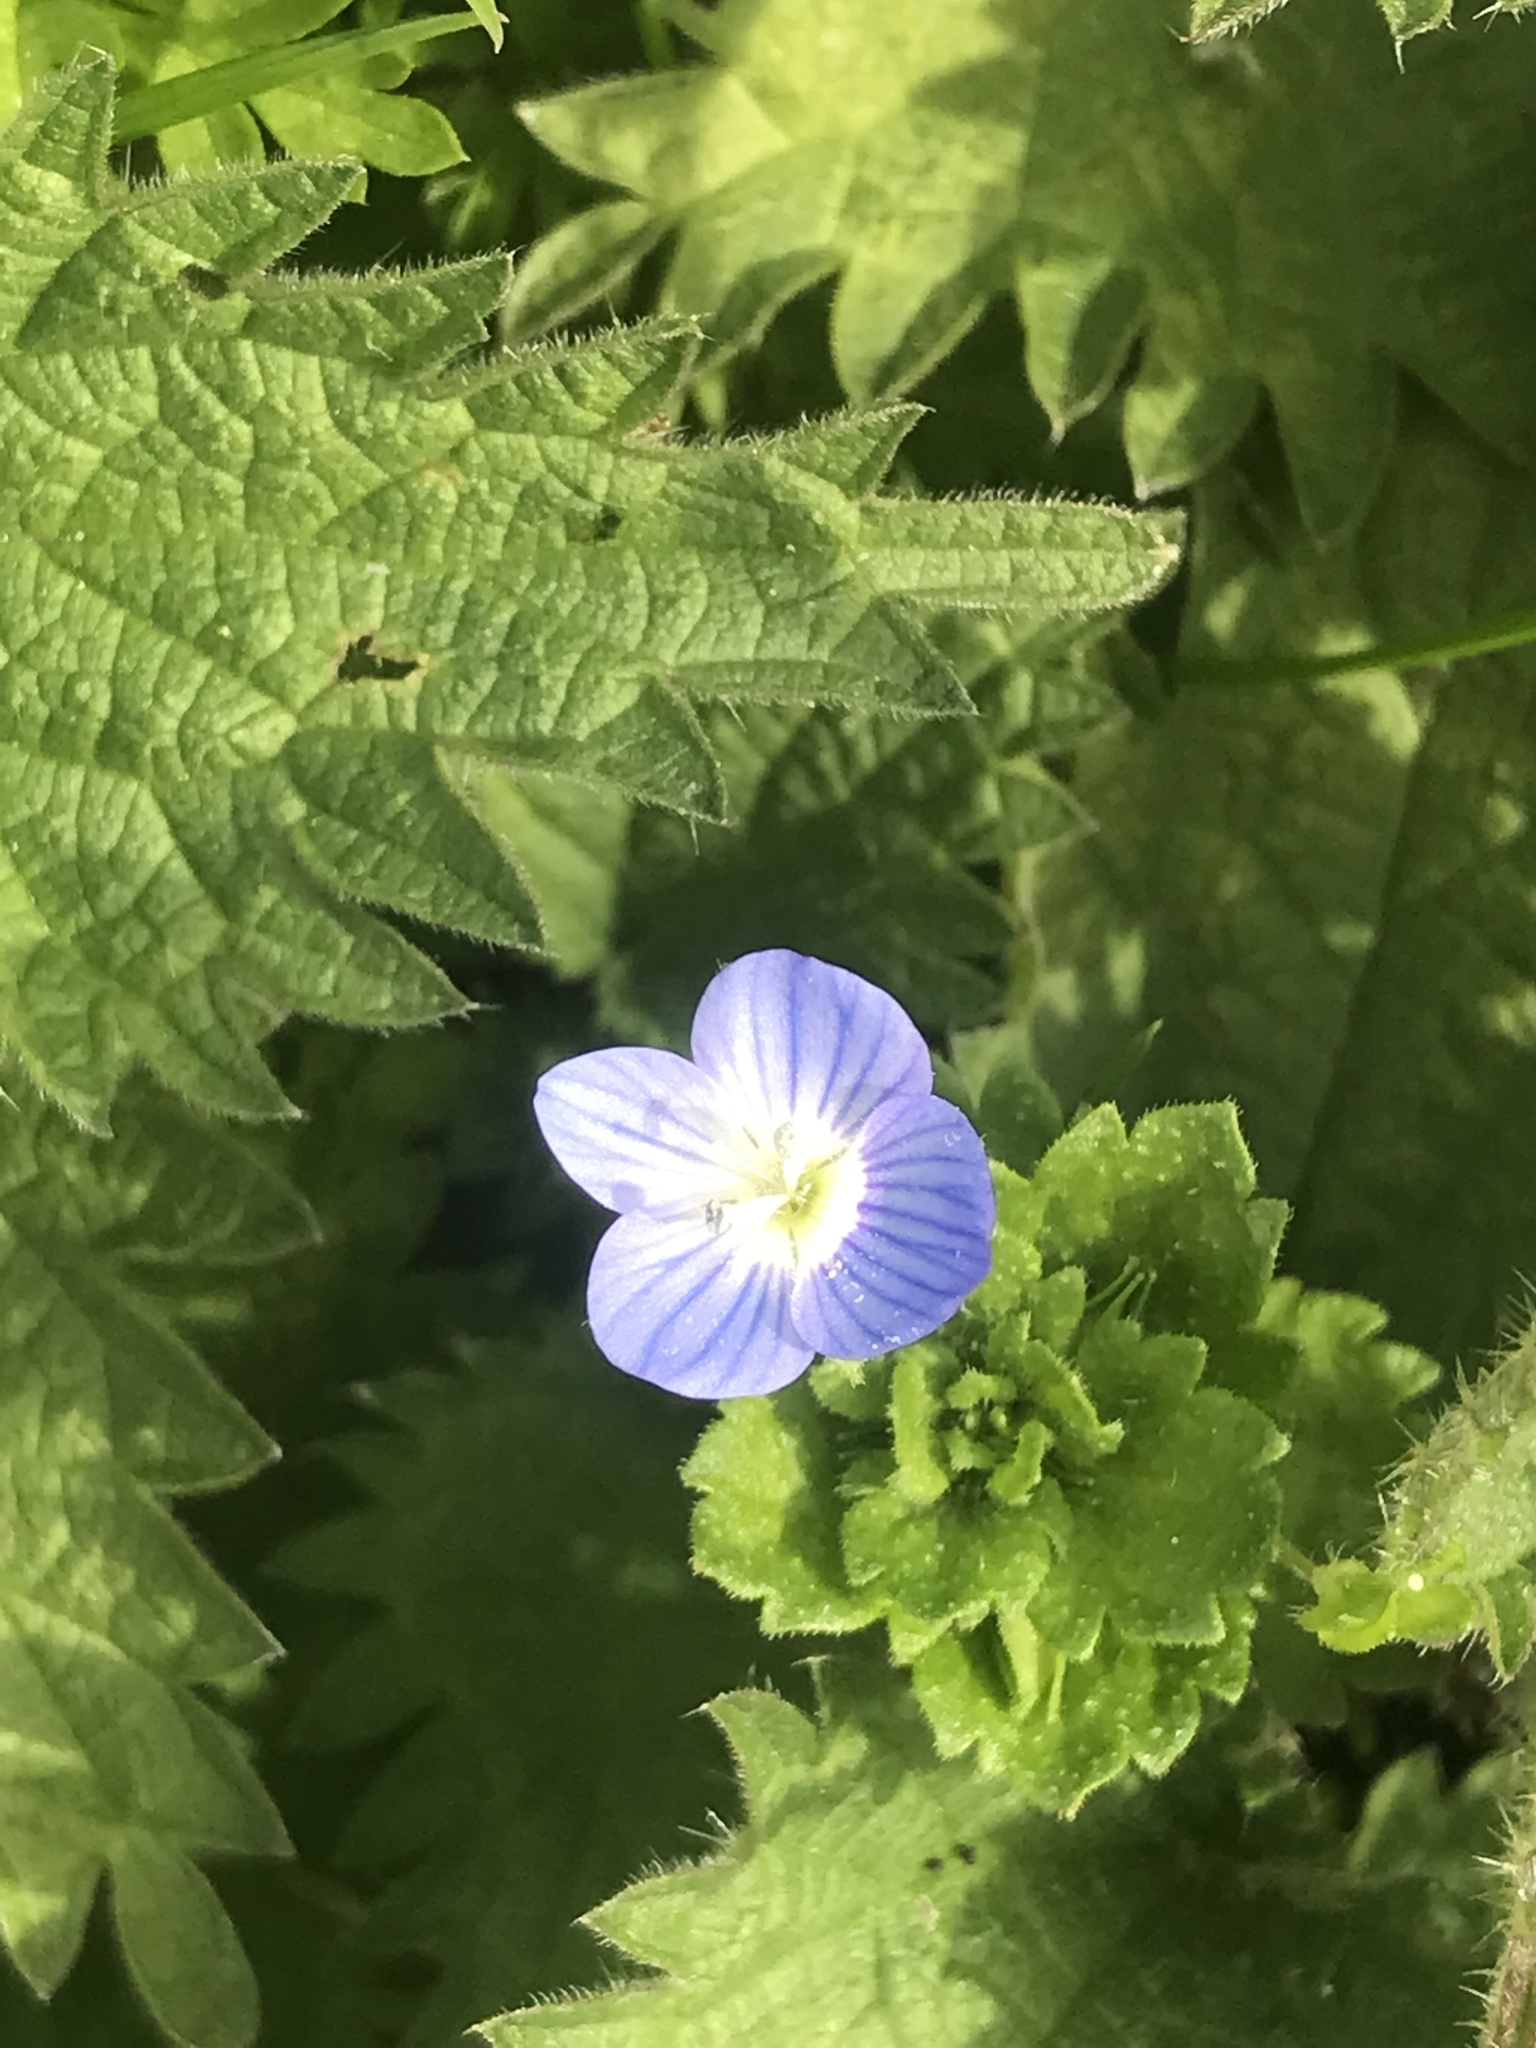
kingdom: Plantae
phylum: Tracheophyta
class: Magnoliopsida
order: Lamiales
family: Plantaginaceae
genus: Veronica
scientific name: Veronica persica
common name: Common field-speedwell
